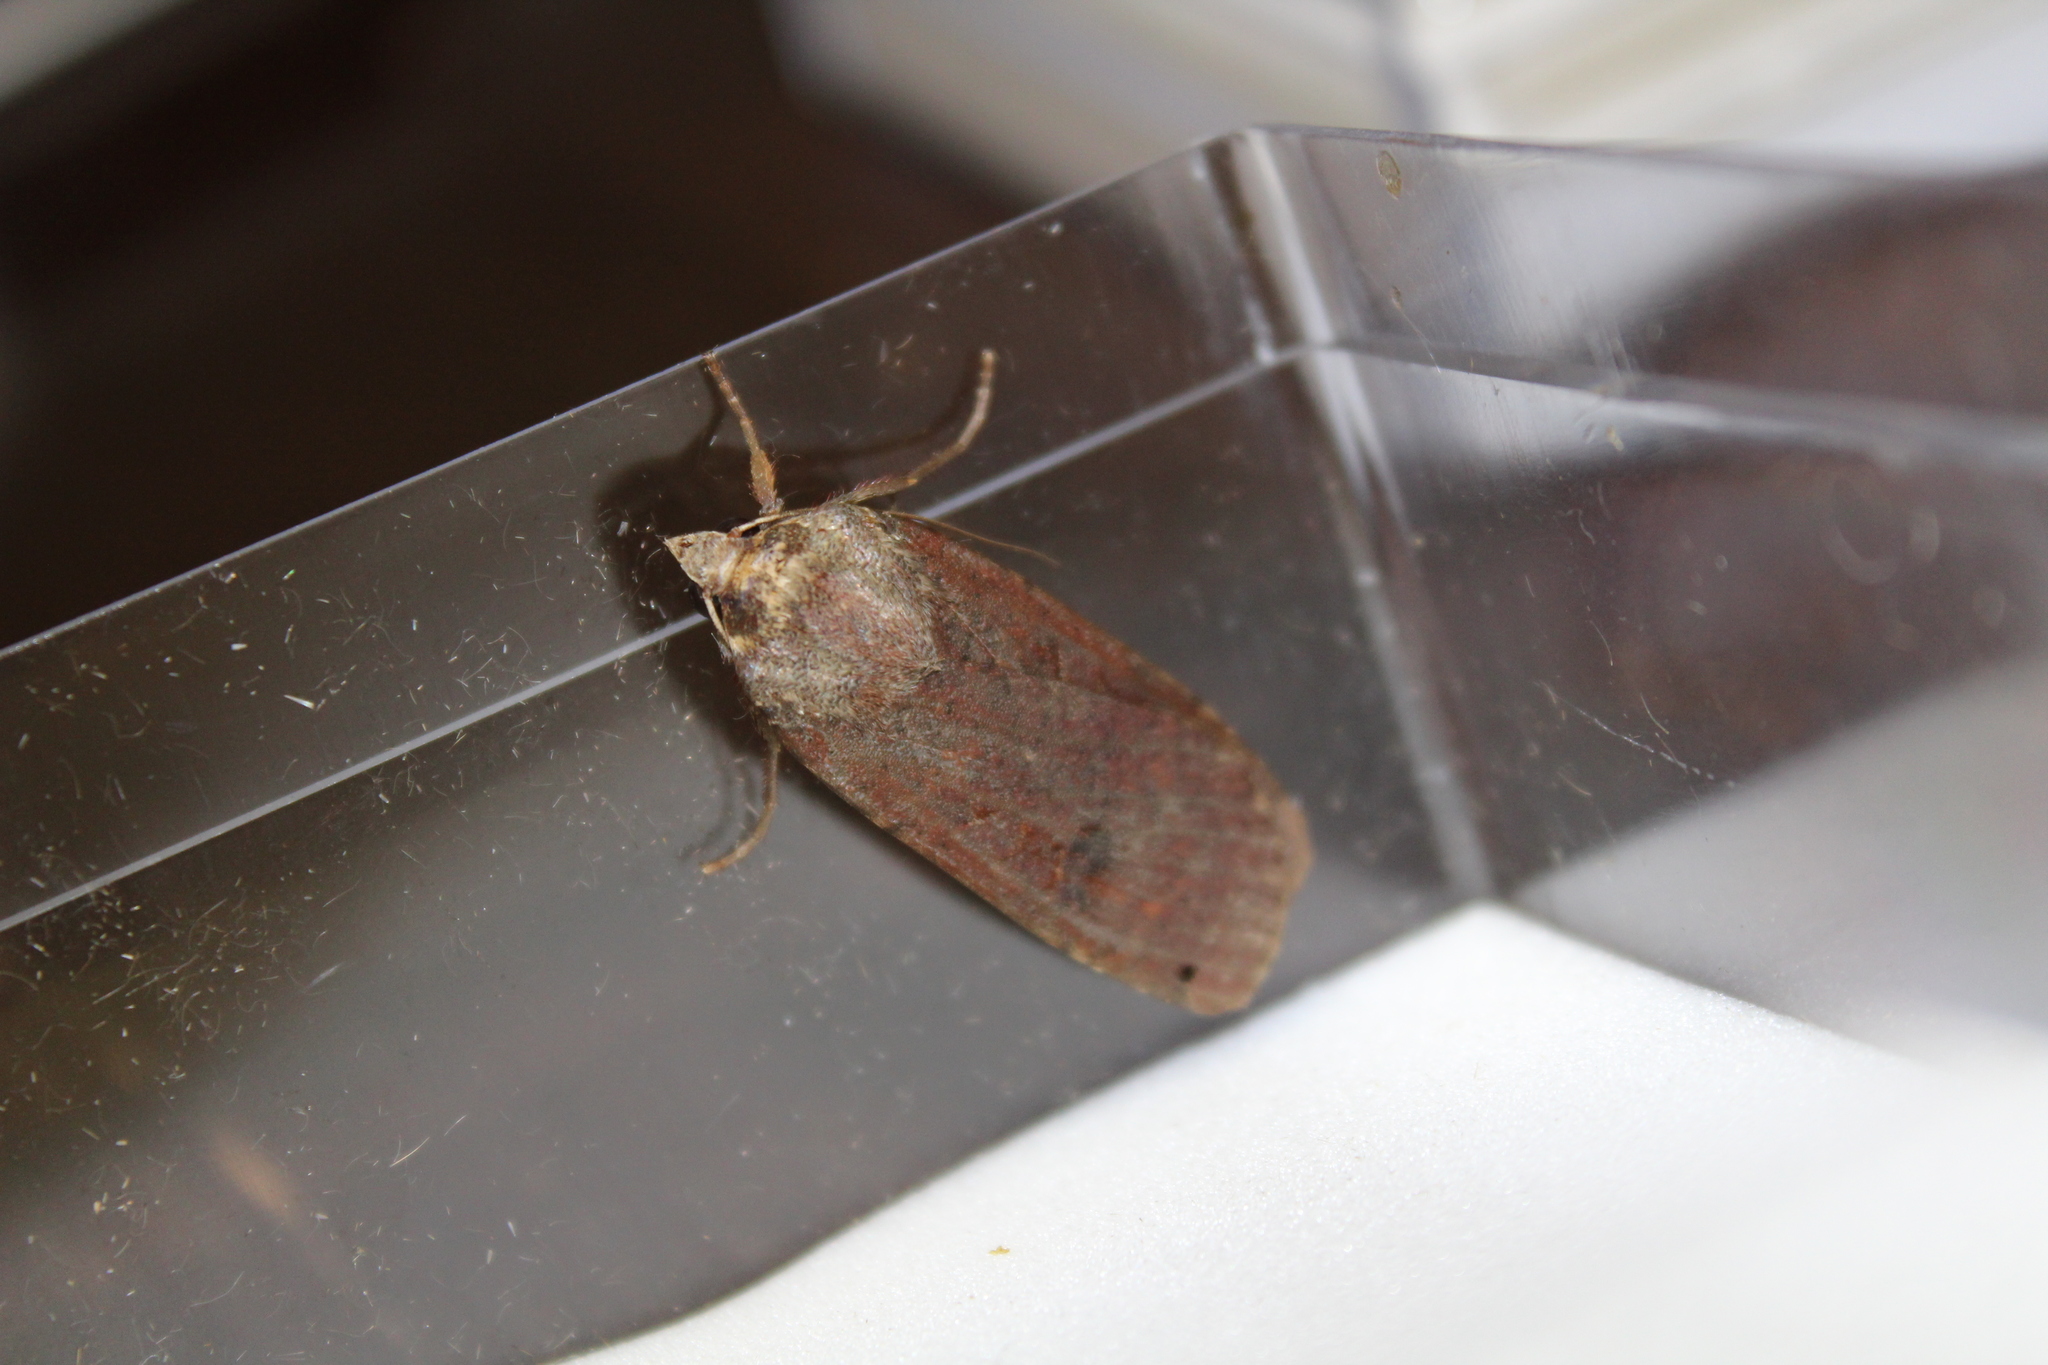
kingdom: Animalia
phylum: Arthropoda
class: Insecta
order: Lepidoptera
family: Noctuidae
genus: Noctua
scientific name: Noctua pronuba
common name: Large yellow underwing
